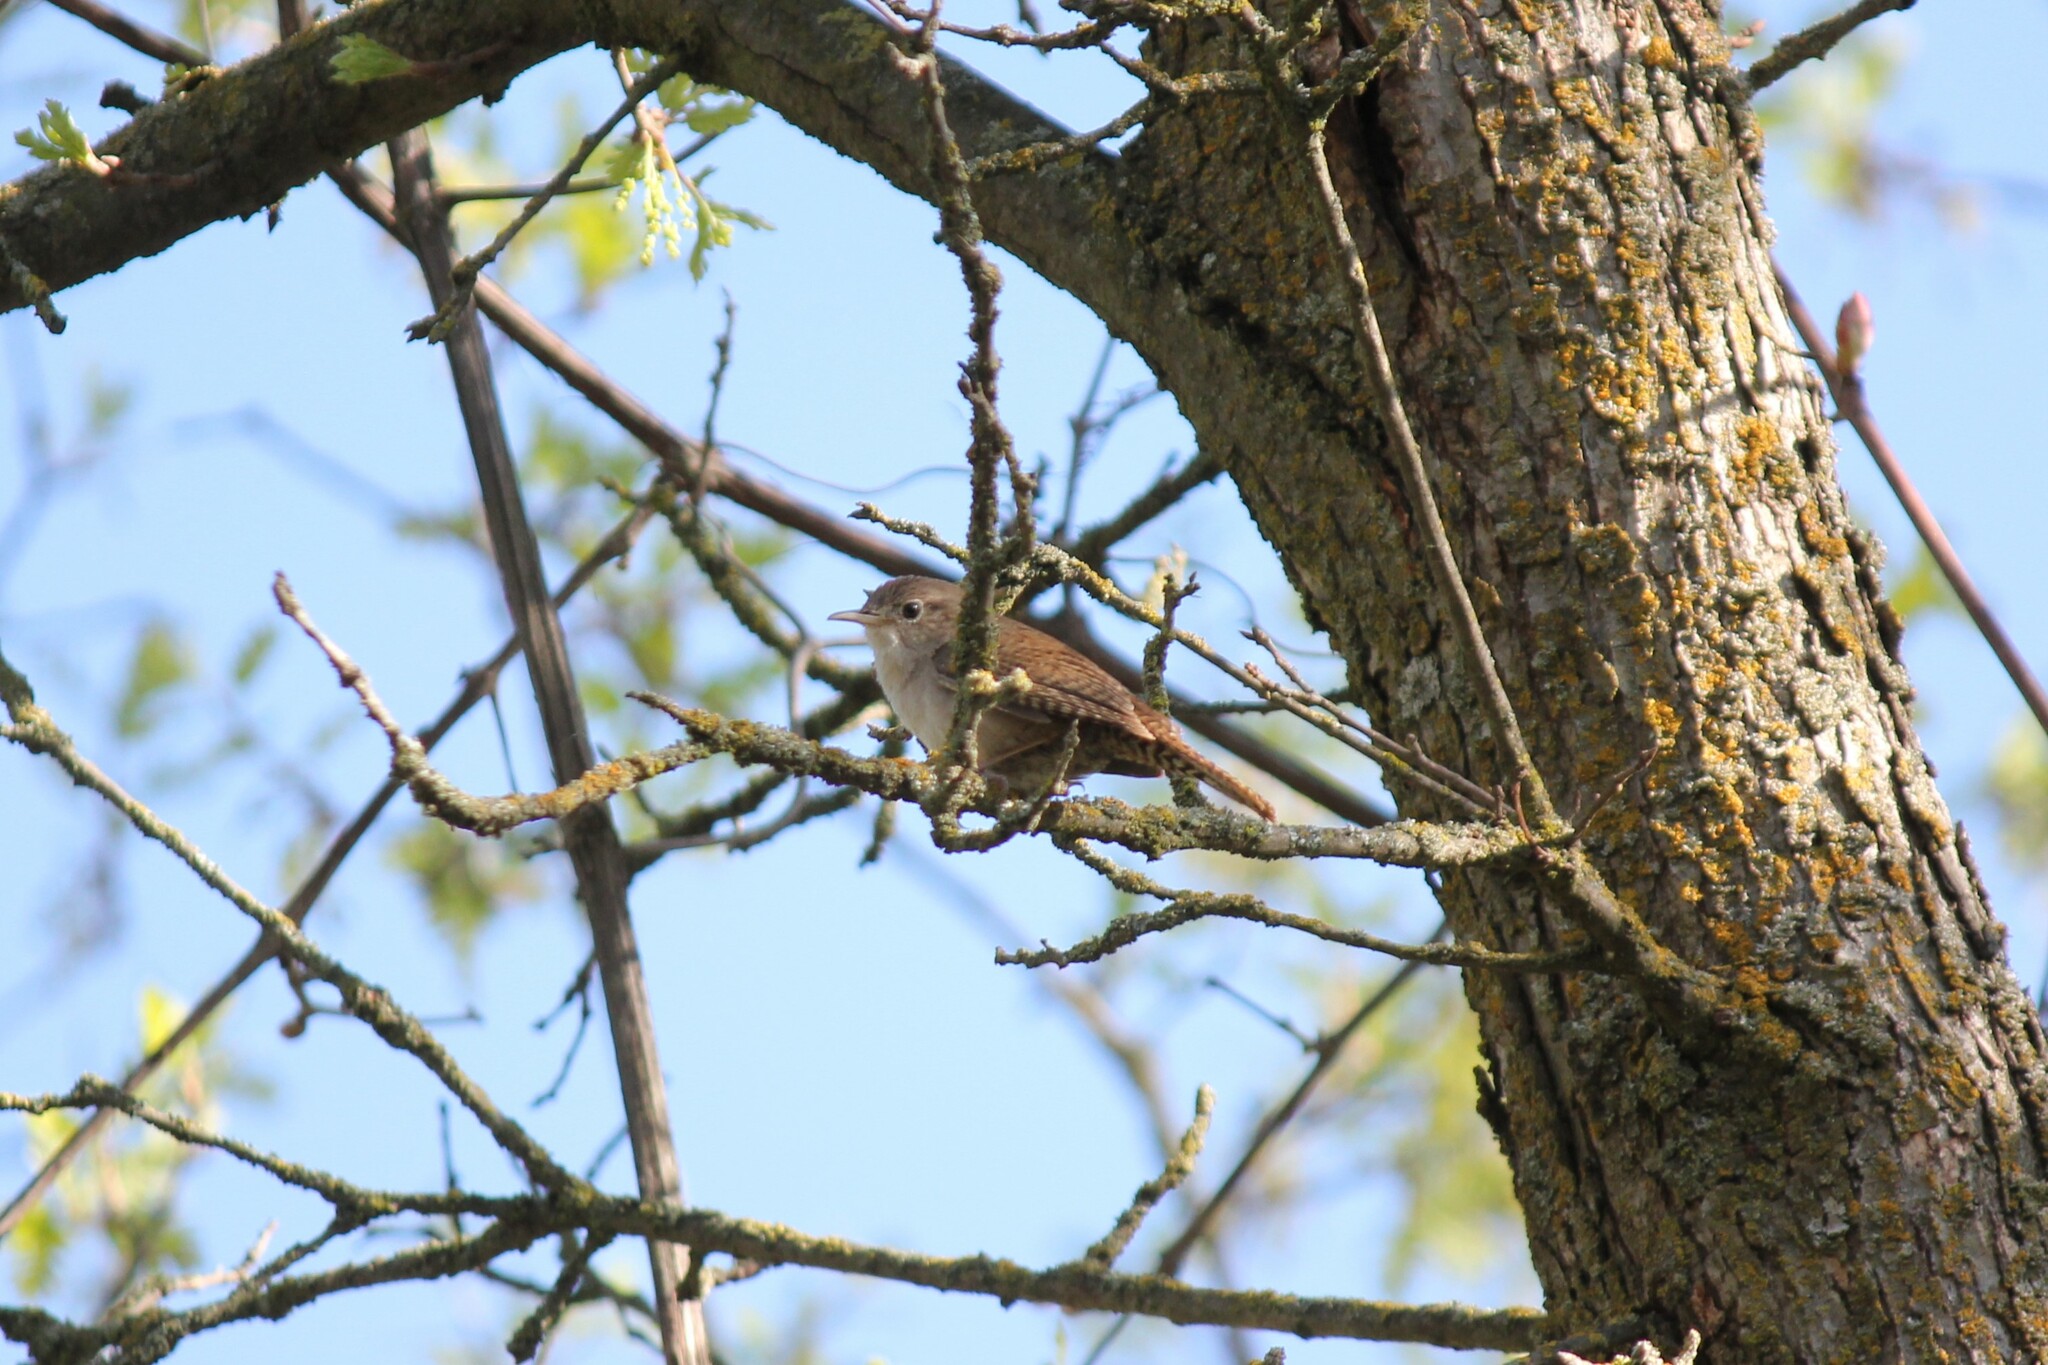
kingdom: Animalia
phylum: Chordata
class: Aves
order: Passeriformes
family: Troglodytidae
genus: Troglodytes
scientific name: Troglodytes aedon
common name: House wren
